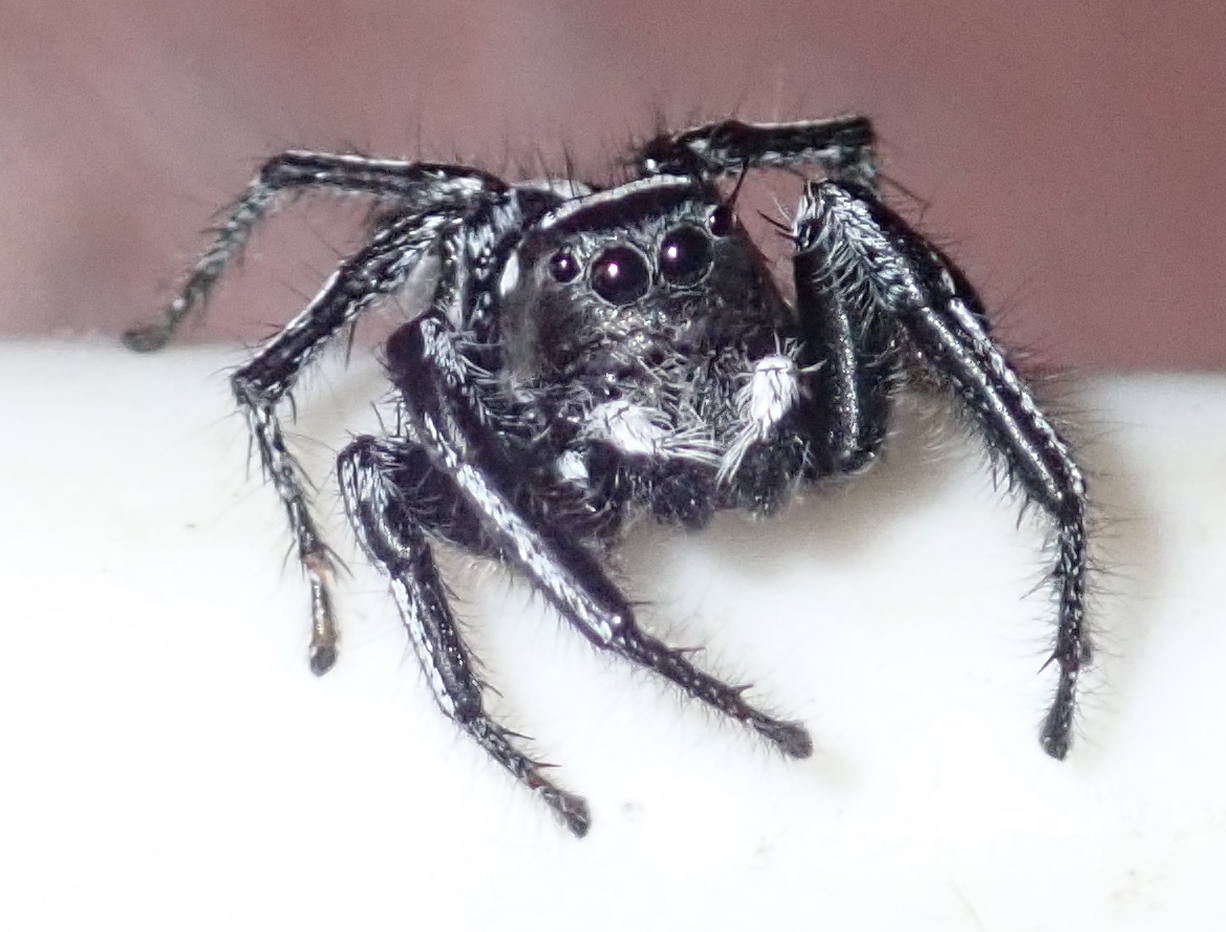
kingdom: Animalia
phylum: Arthropoda
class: Arachnida
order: Araneae
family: Salticidae
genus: Hyllus
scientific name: Hyllus argyrotoxus
